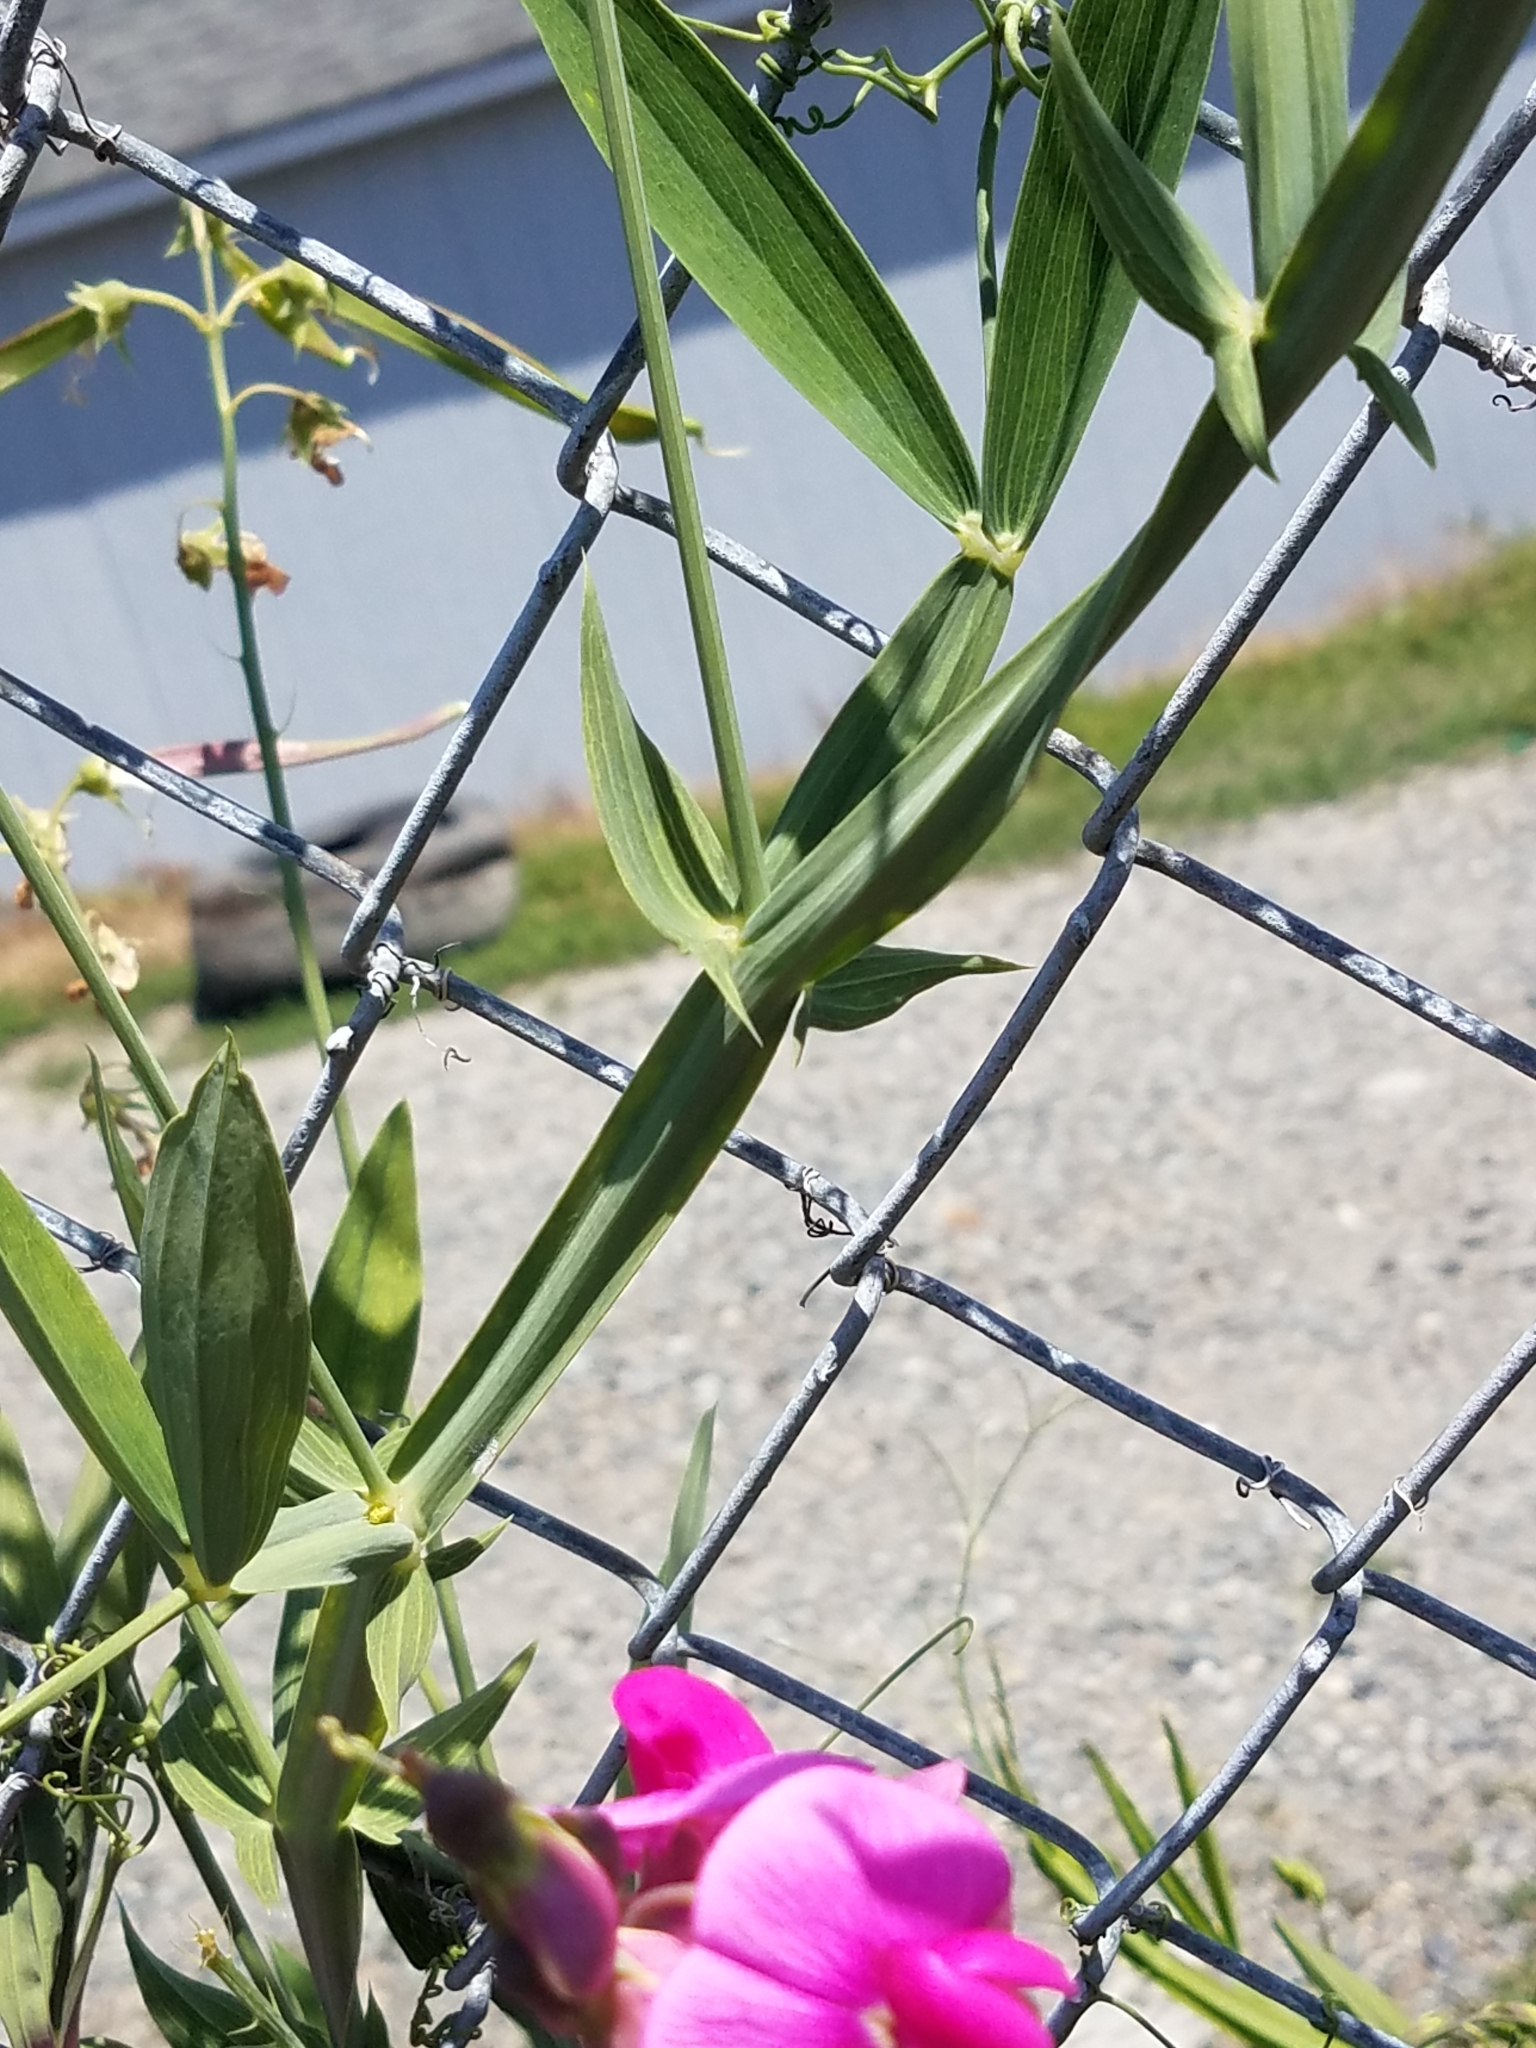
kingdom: Plantae
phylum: Tracheophyta
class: Magnoliopsida
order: Fabales
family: Fabaceae
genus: Lathyrus
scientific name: Lathyrus latifolius
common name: Perennial pea
